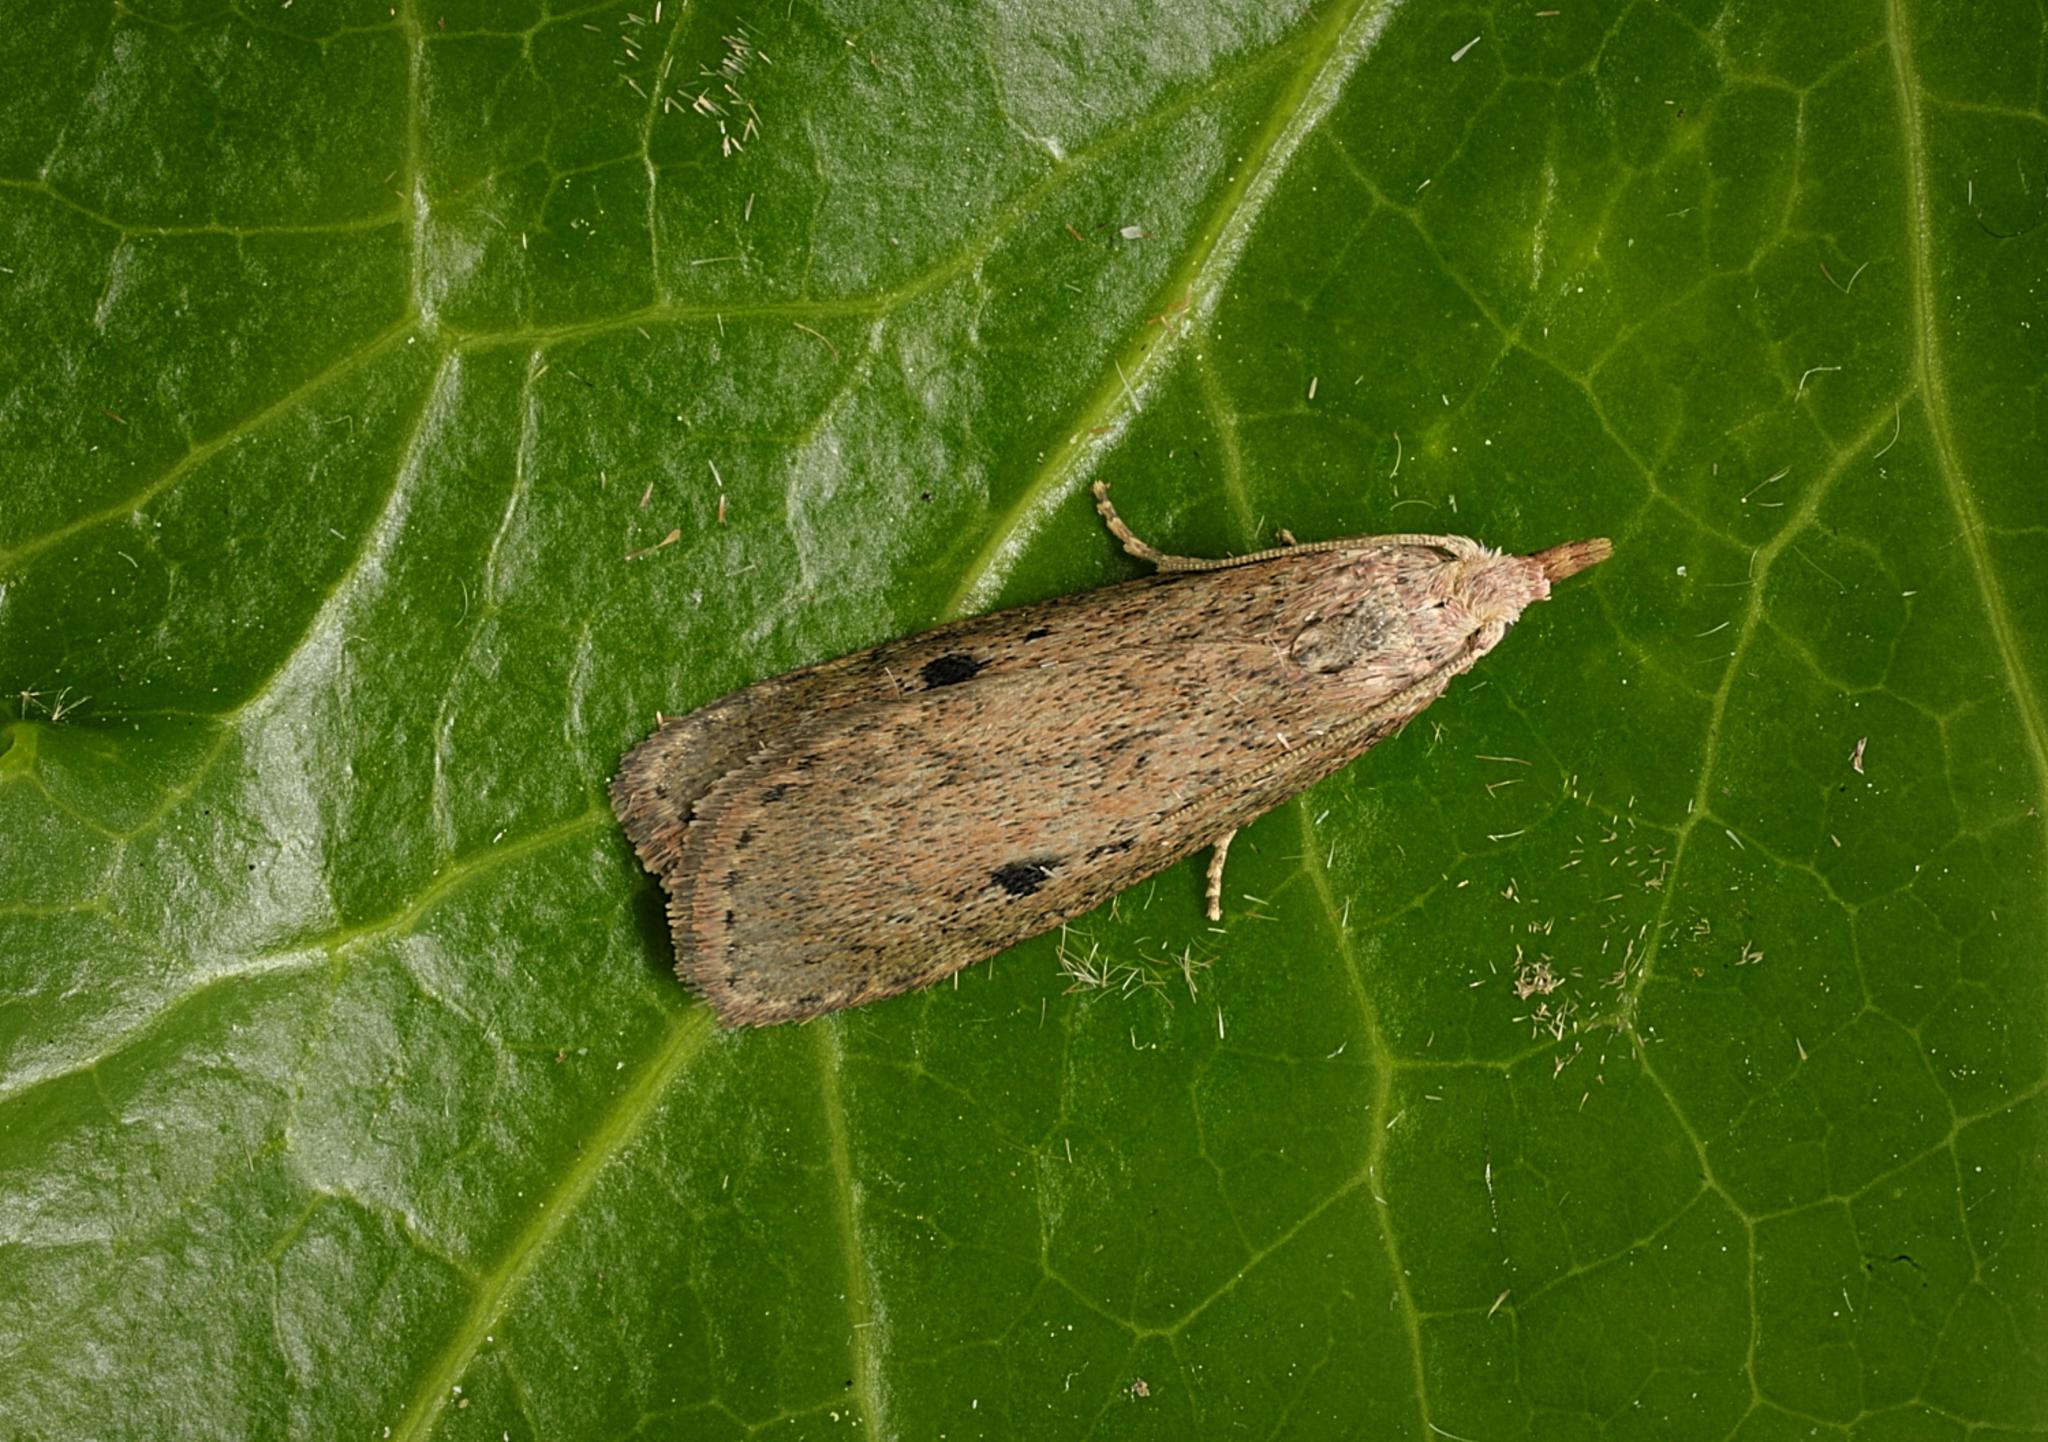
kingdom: Animalia
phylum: Arthropoda
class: Insecta
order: Lepidoptera
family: Pyralidae
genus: Aphomia
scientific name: Aphomia sociella
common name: Bee moth
